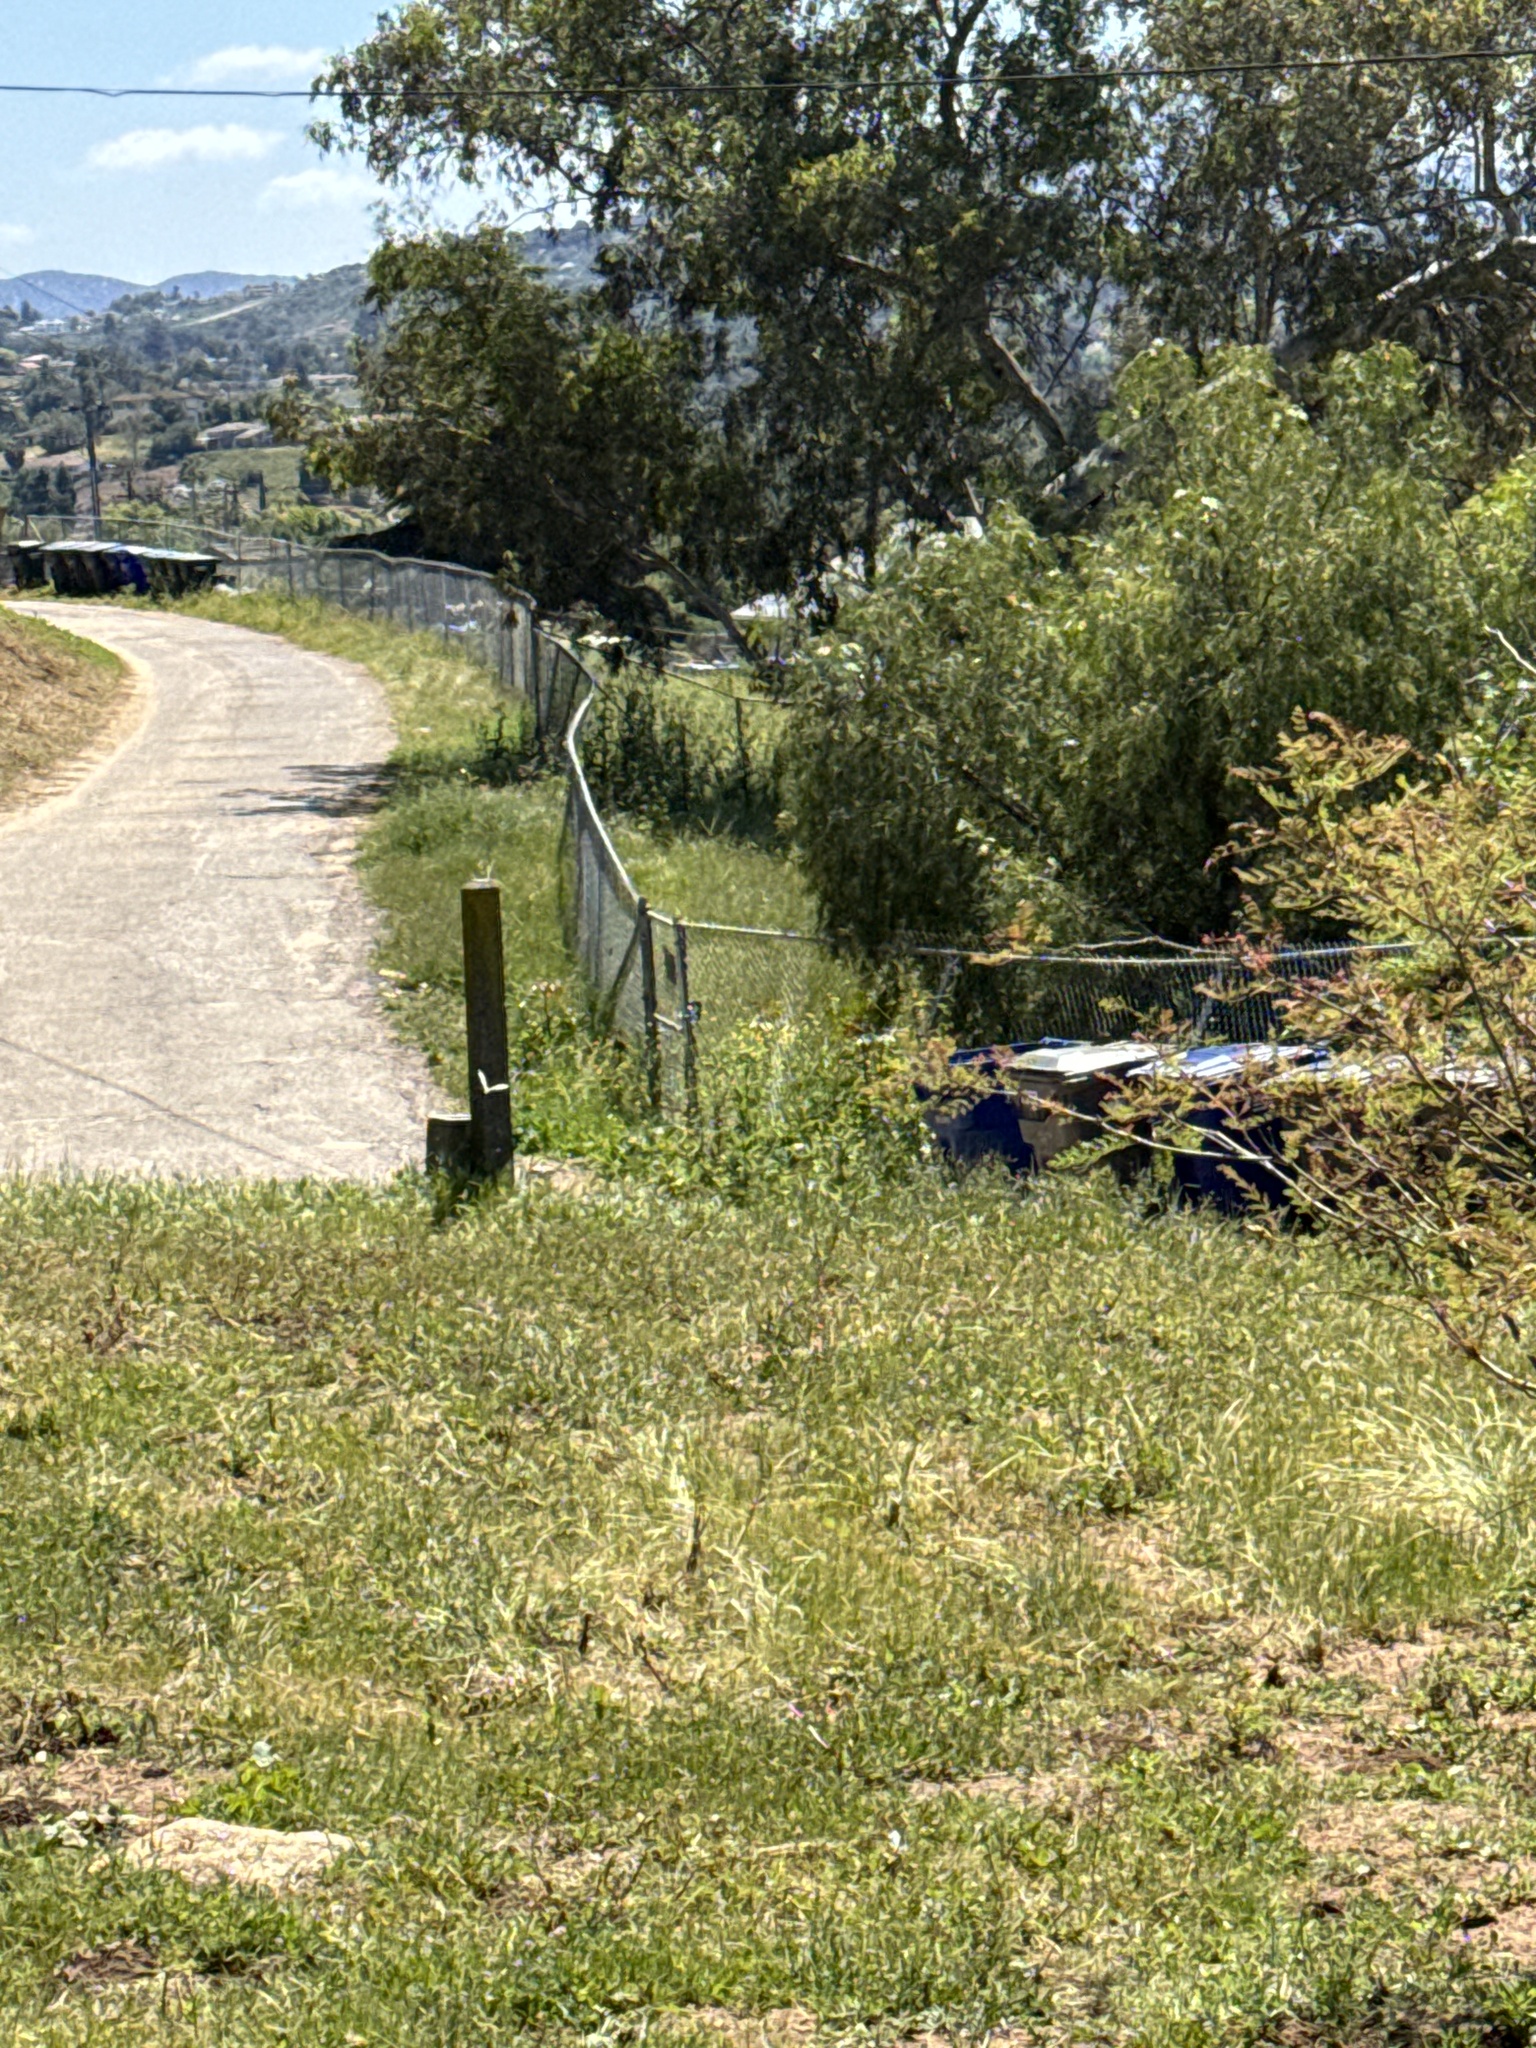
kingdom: Animalia
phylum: Arthropoda
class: Insecta
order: Lepidoptera
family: Pieridae
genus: Pieris
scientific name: Pieris rapae
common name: Small white
